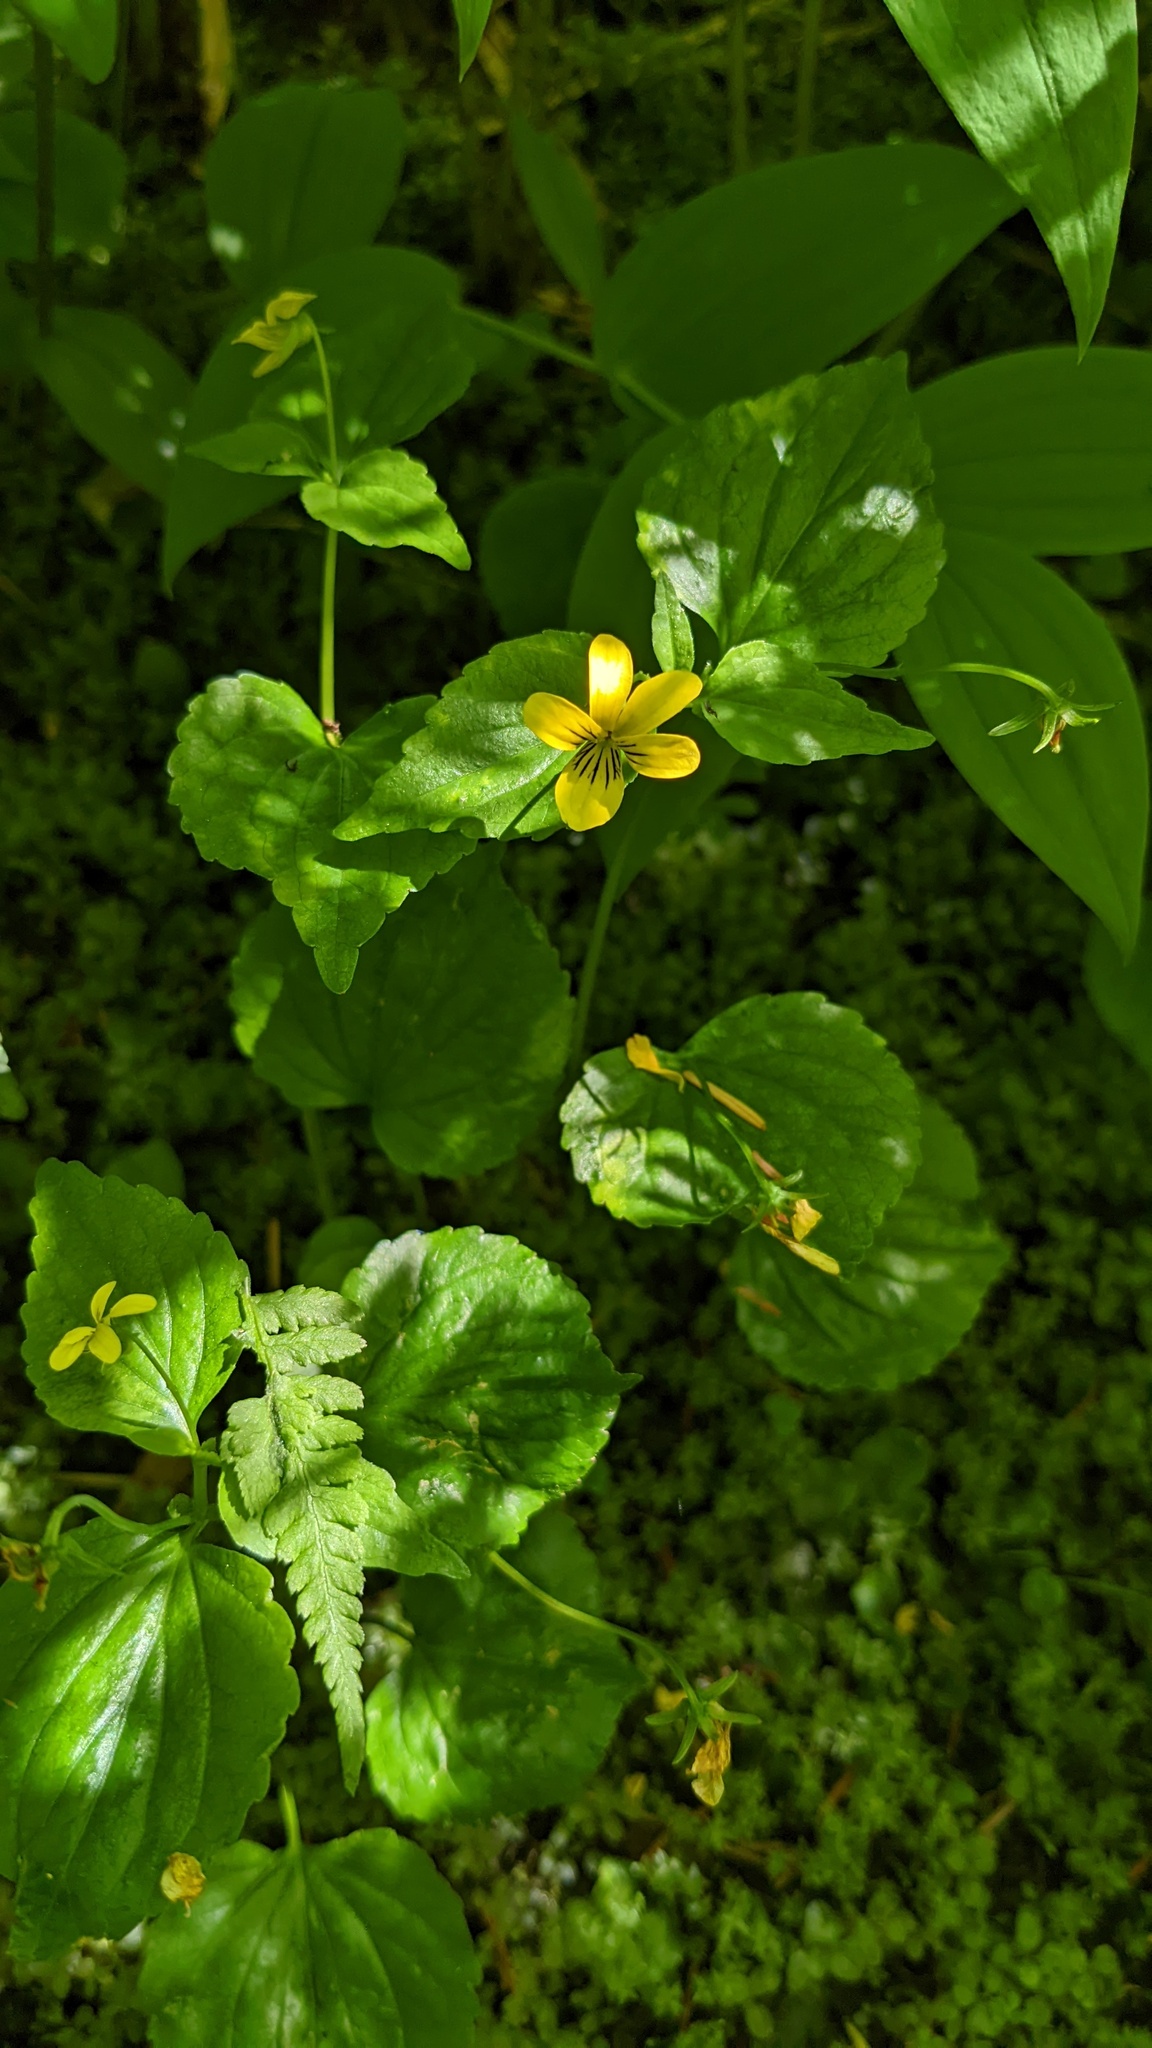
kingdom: Plantae
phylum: Tracheophyta
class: Magnoliopsida
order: Malpighiales
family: Violaceae
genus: Viola
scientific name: Viola glabella
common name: Stream violet
